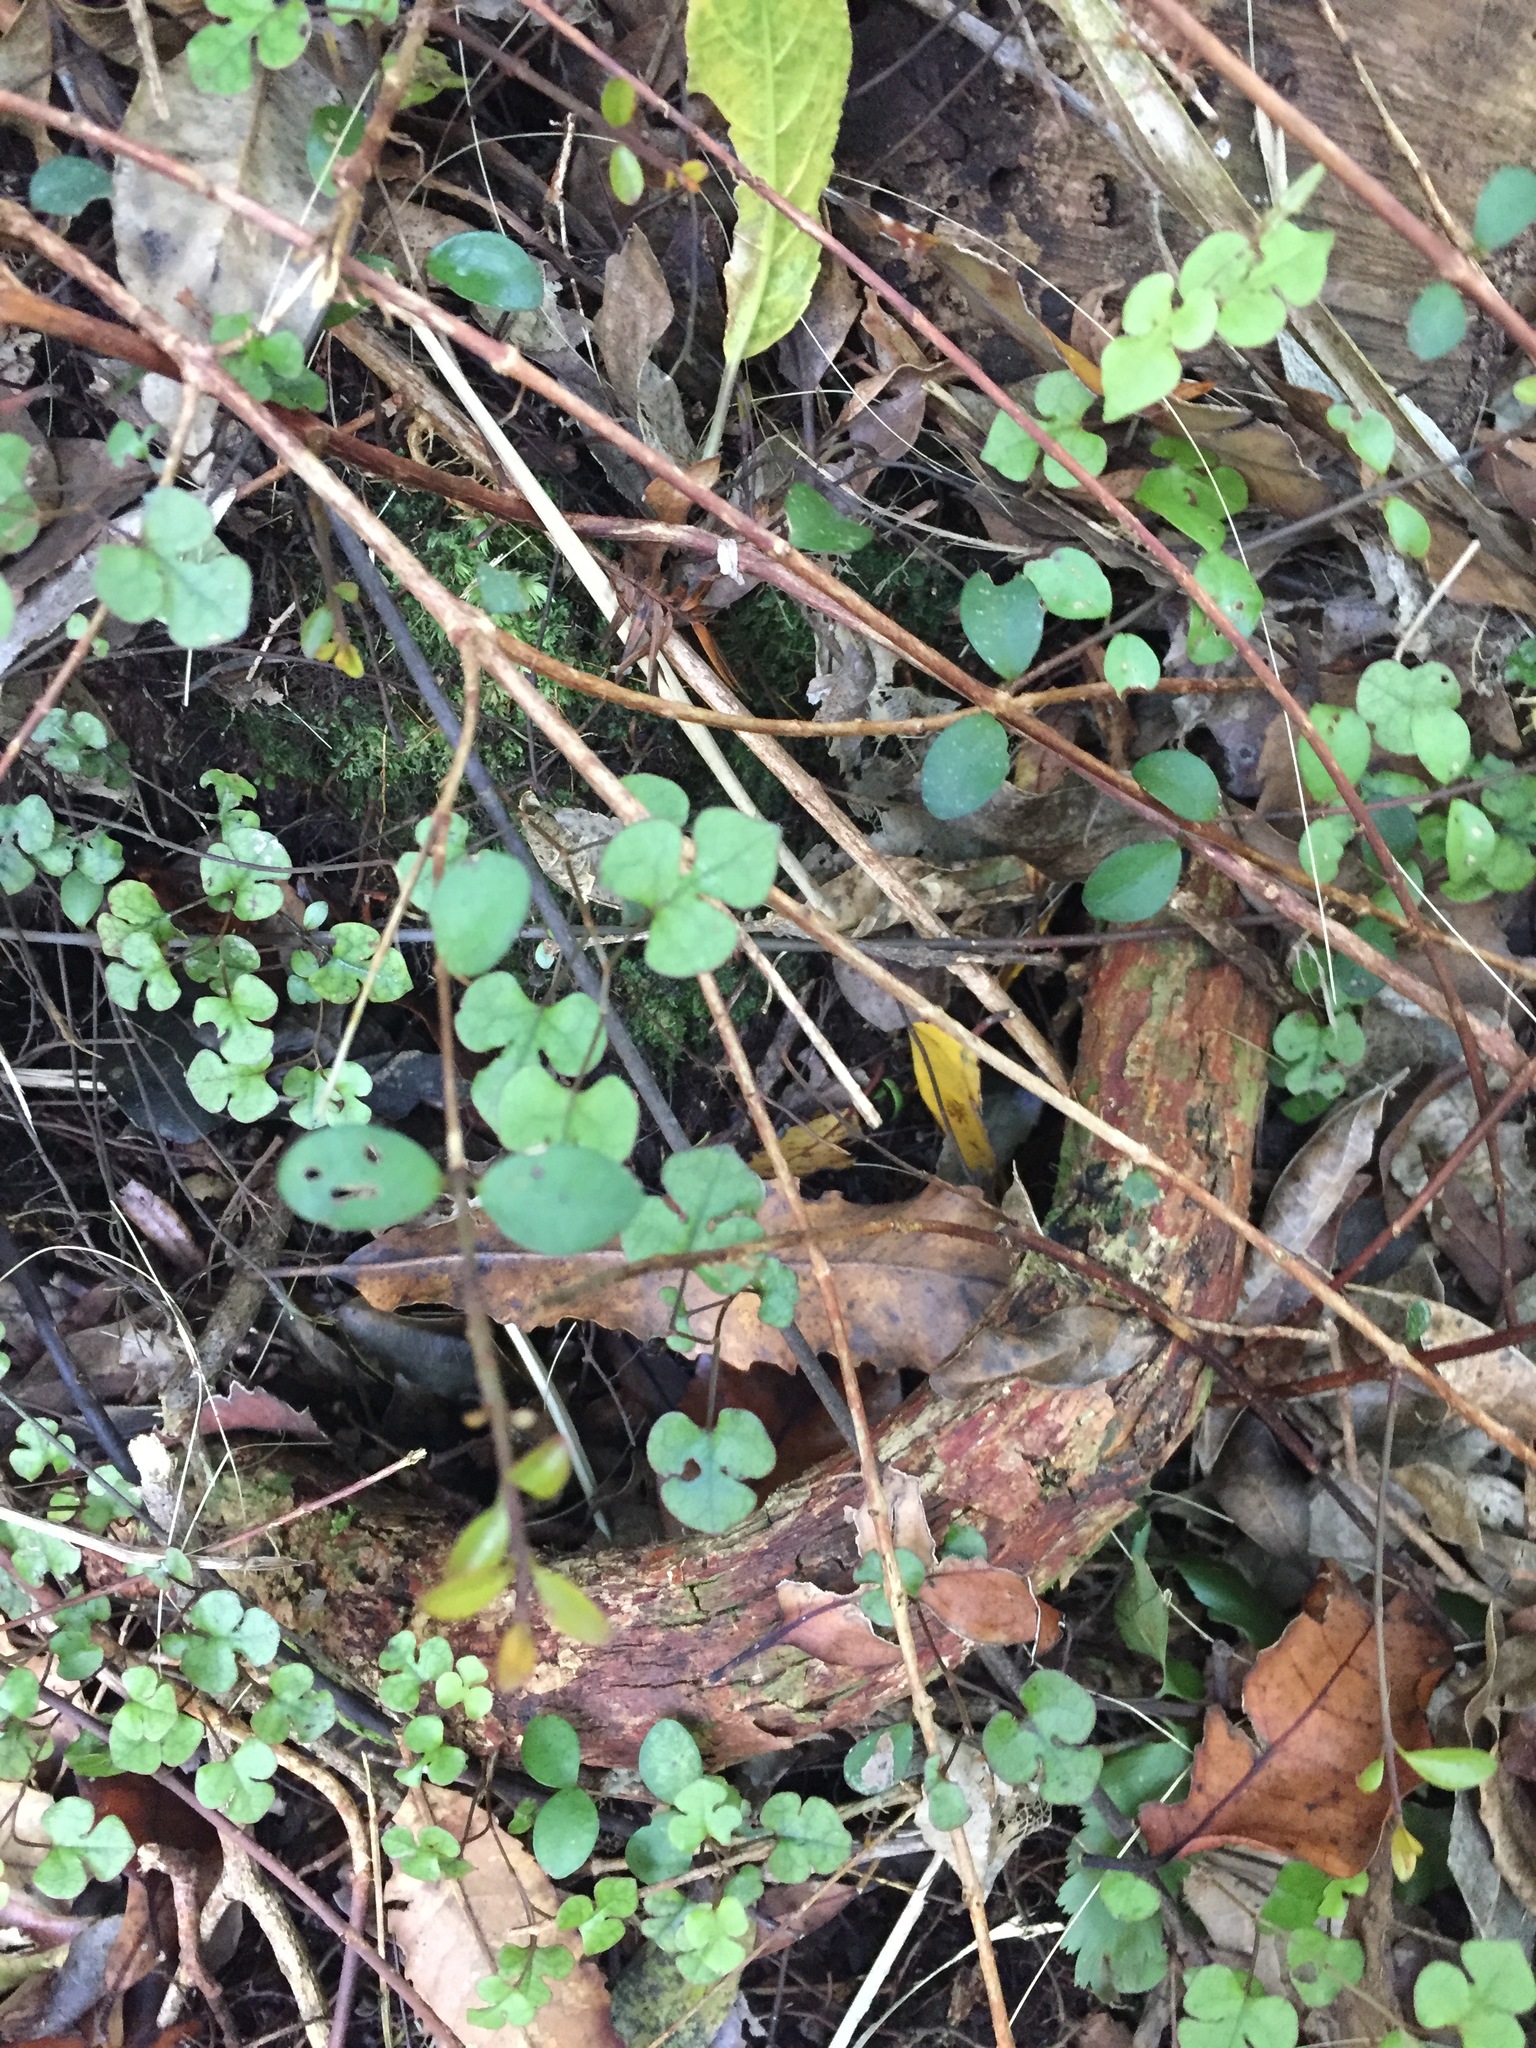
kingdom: Plantae
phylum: Tracheophyta
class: Magnoliopsida
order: Caryophyllales
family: Polygonaceae
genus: Muehlenbeckia
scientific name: Muehlenbeckia australis
